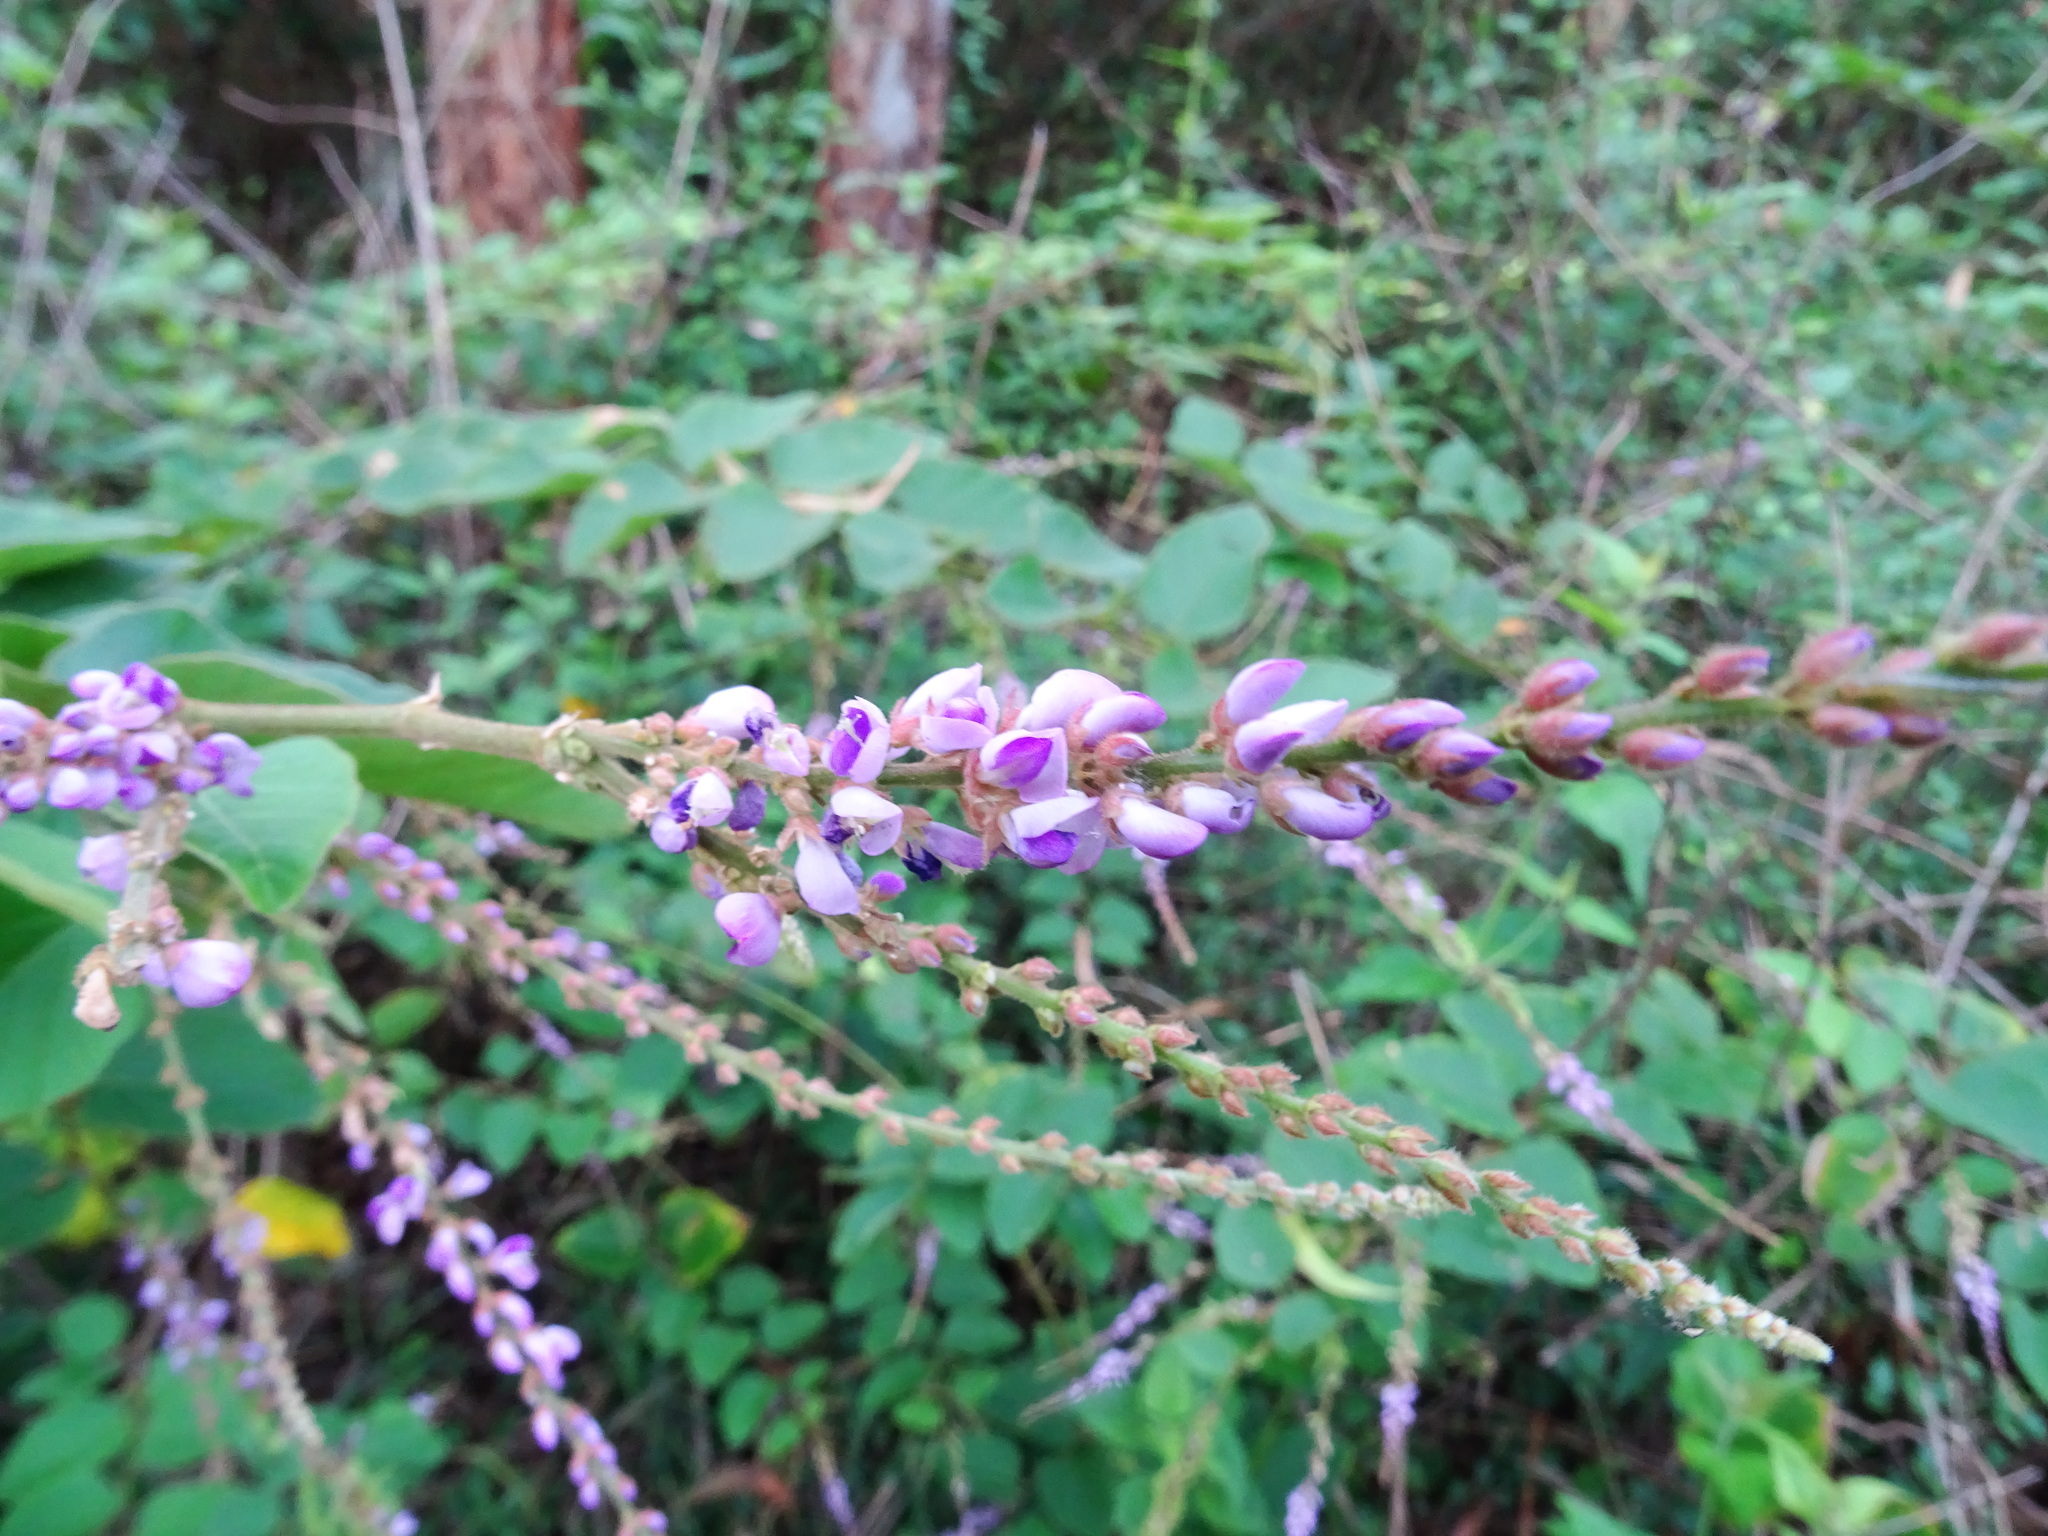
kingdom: Plantae
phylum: Tracheophyta
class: Magnoliopsida
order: Fabales
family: Fabaceae
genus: Polhillides
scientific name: Polhillides velutina
